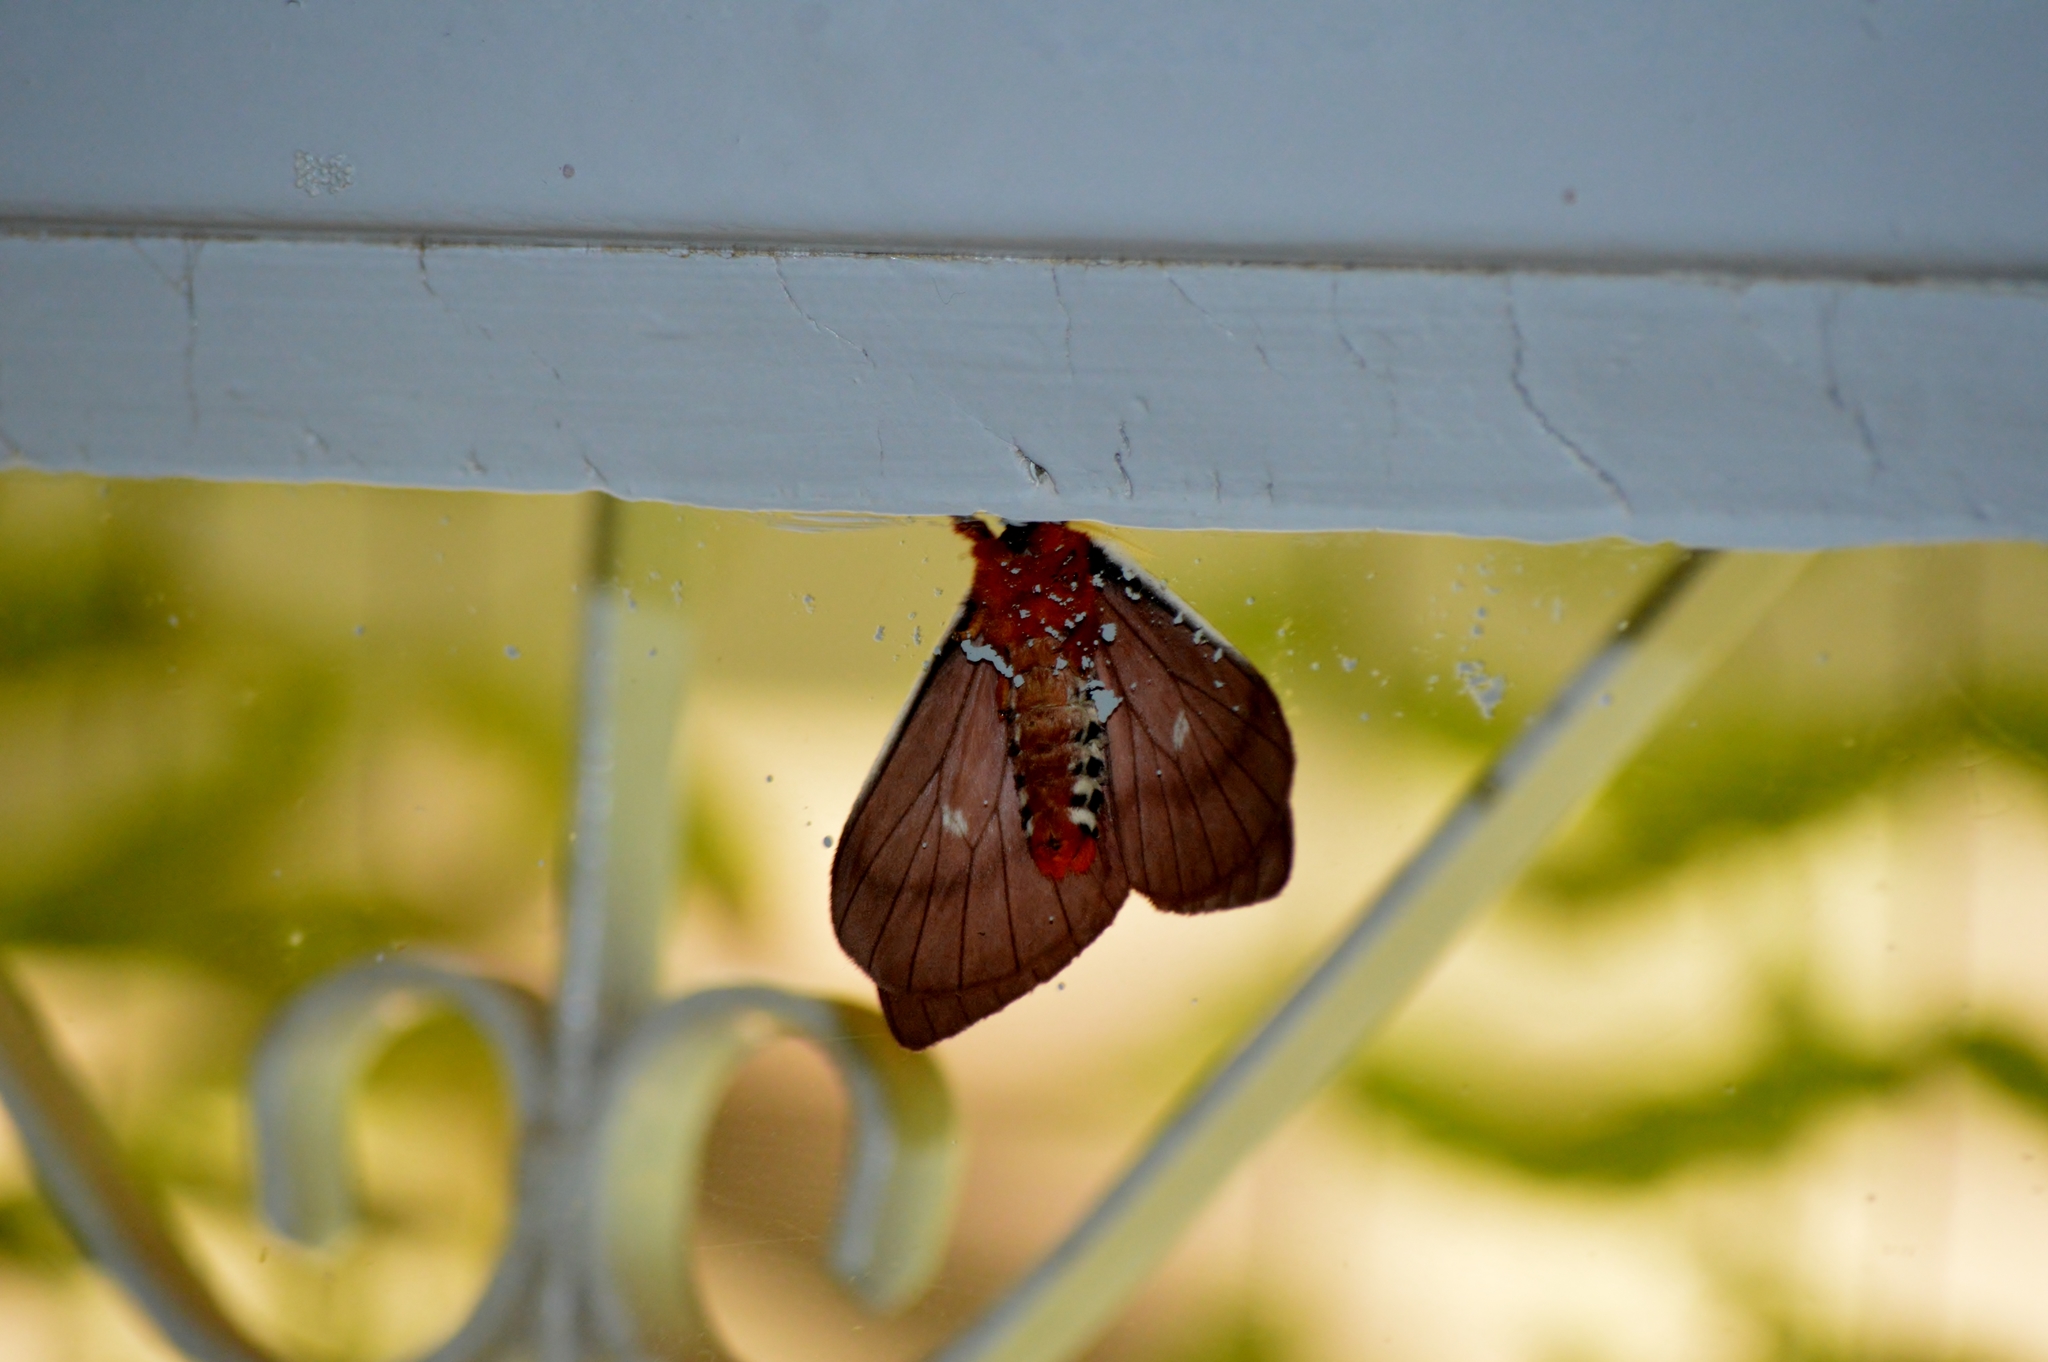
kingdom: Animalia
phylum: Arthropoda
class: Insecta
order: Lepidoptera
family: Saturniidae
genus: Cerodirphia
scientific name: Cerodirphia apunctata
